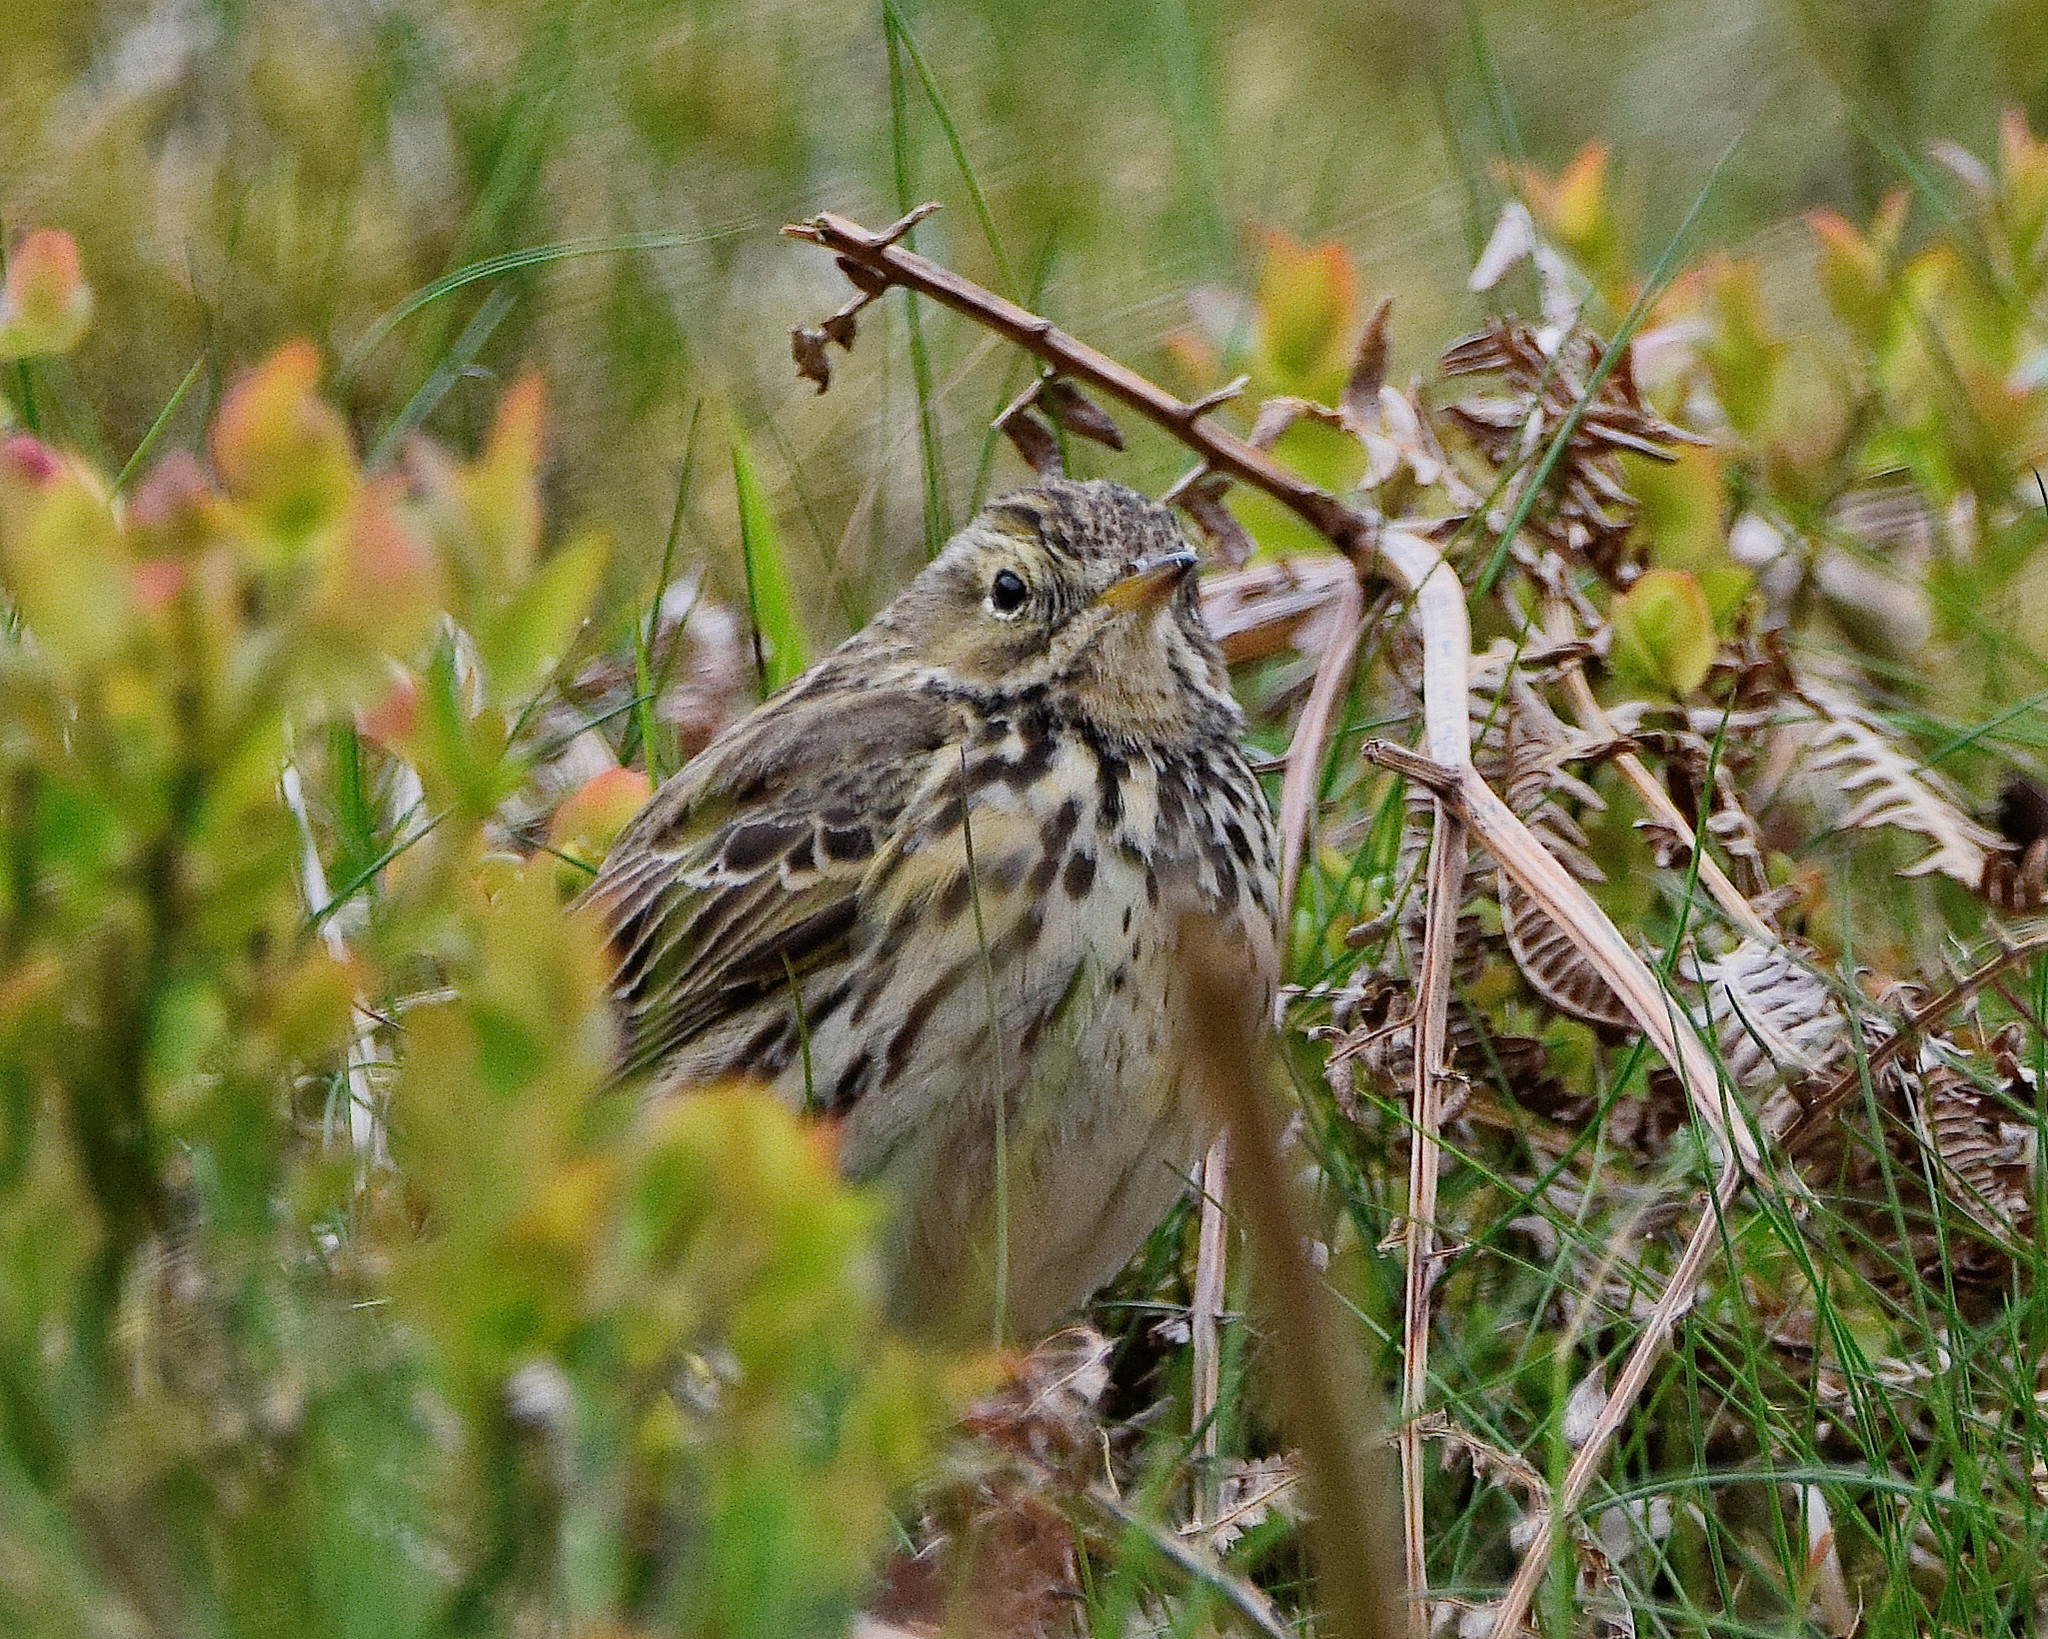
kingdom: Animalia
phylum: Chordata
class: Aves
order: Passeriformes
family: Motacillidae
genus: Anthus
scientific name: Anthus pratensis
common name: Meadow pipit
